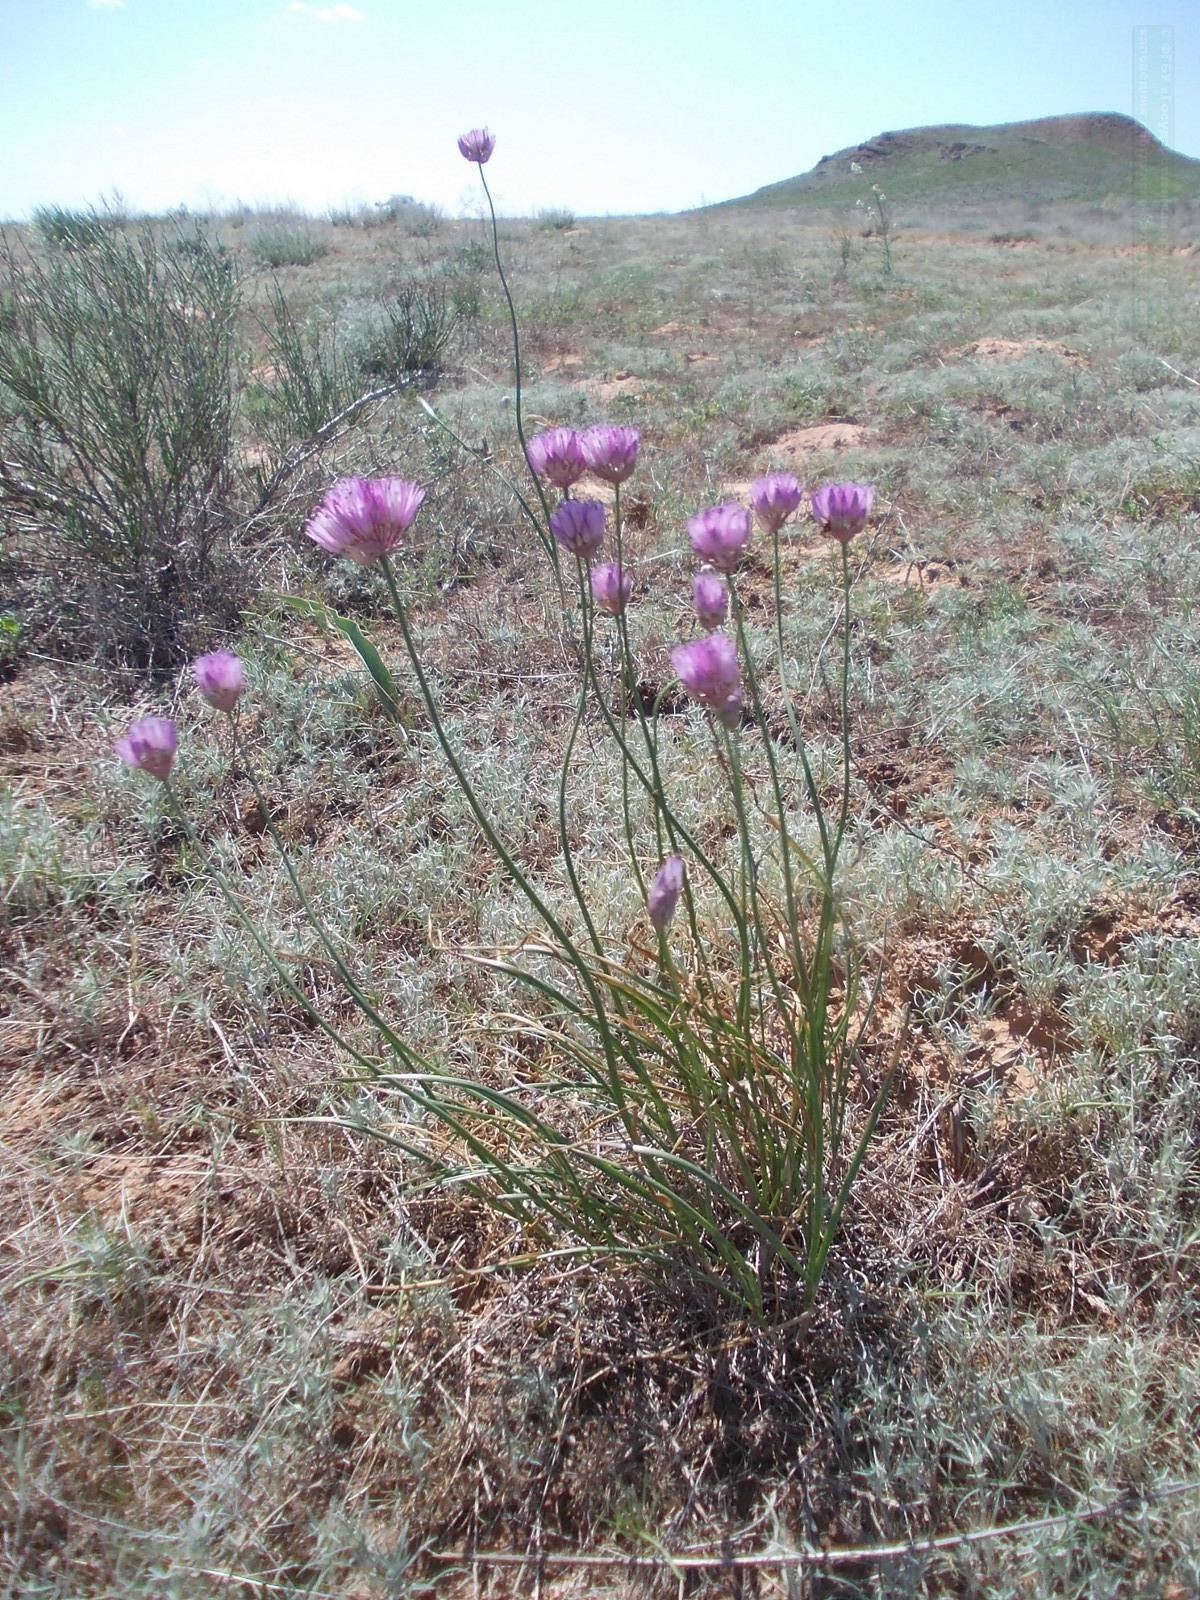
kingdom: Plantae
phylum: Tracheophyta
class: Liliopsida
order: Asparagales
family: Amaryllidaceae
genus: Allium
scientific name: Allium inderiense
